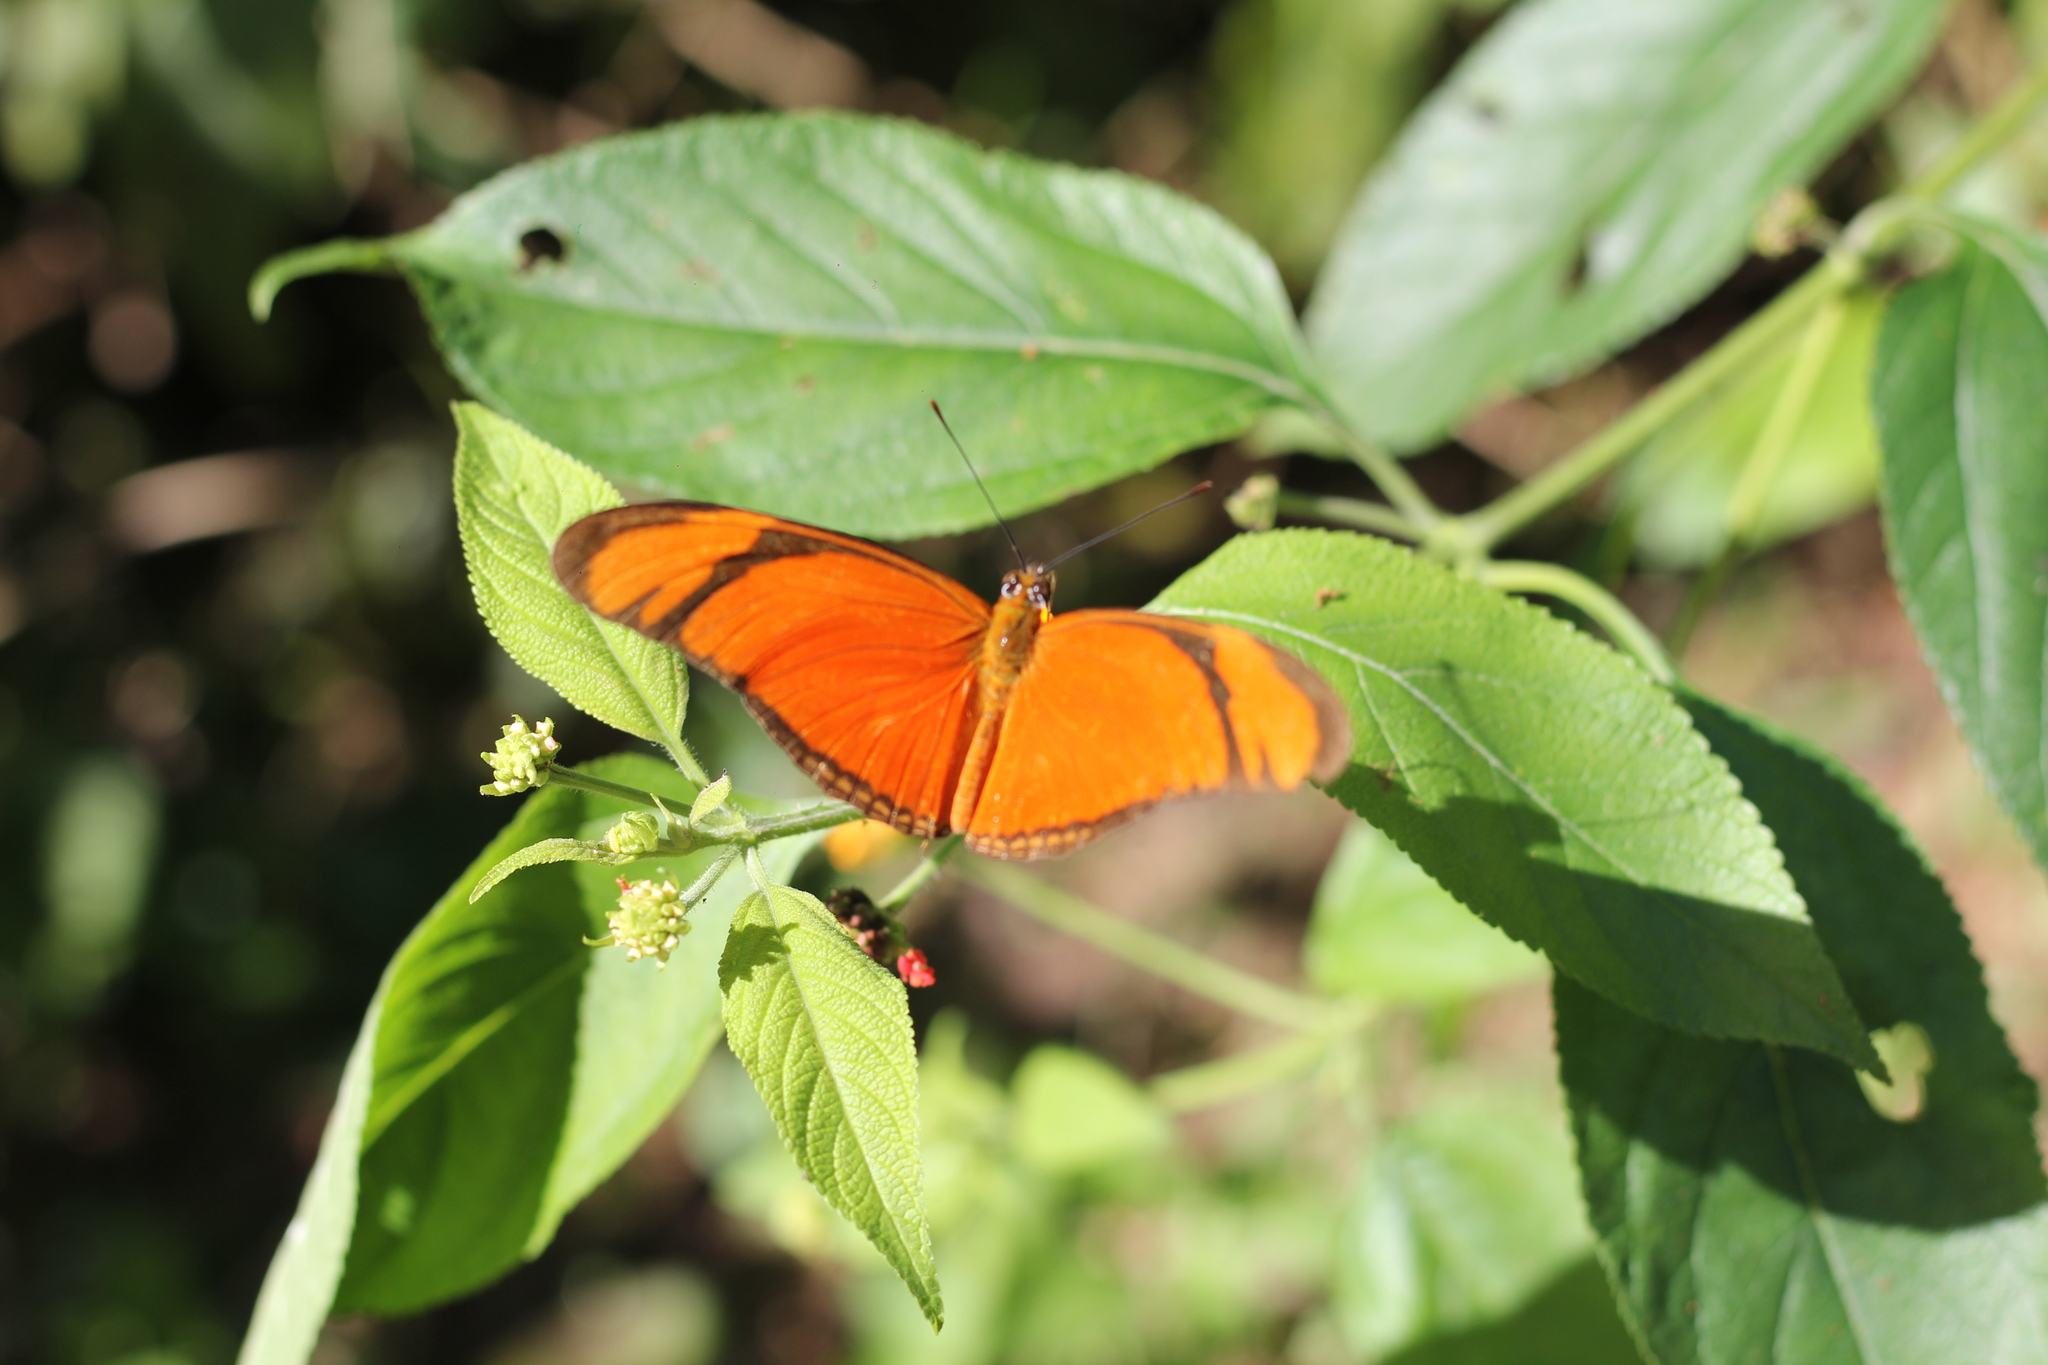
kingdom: Animalia
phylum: Arthropoda
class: Insecta
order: Lepidoptera
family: Nymphalidae
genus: Dryas
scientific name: Dryas iulia
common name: Flambeau
